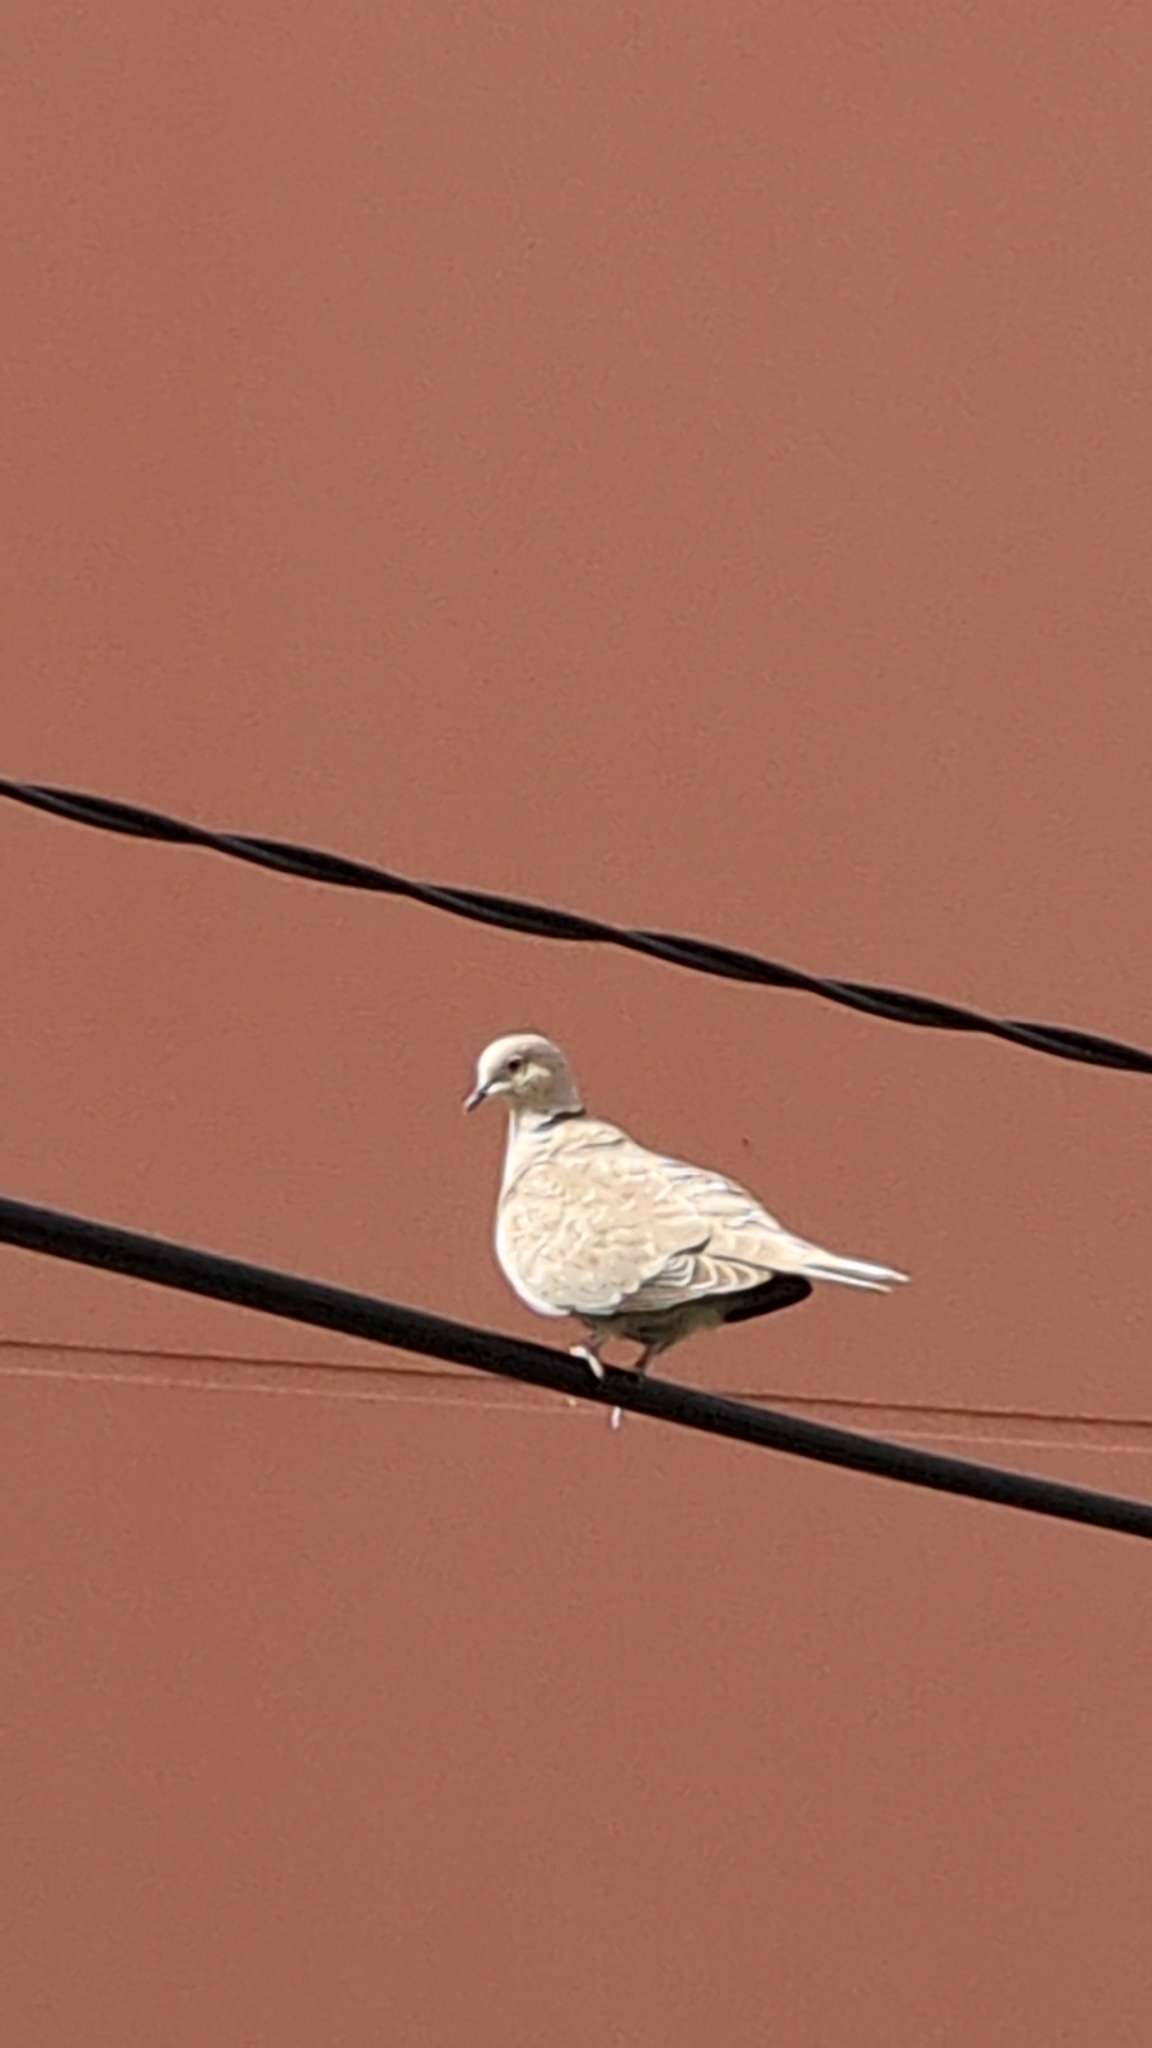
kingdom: Animalia
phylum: Chordata
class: Aves
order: Columbiformes
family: Columbidae
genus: Streptopelia
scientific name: Streptopelia decaocto
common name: Eurasian collared dove
